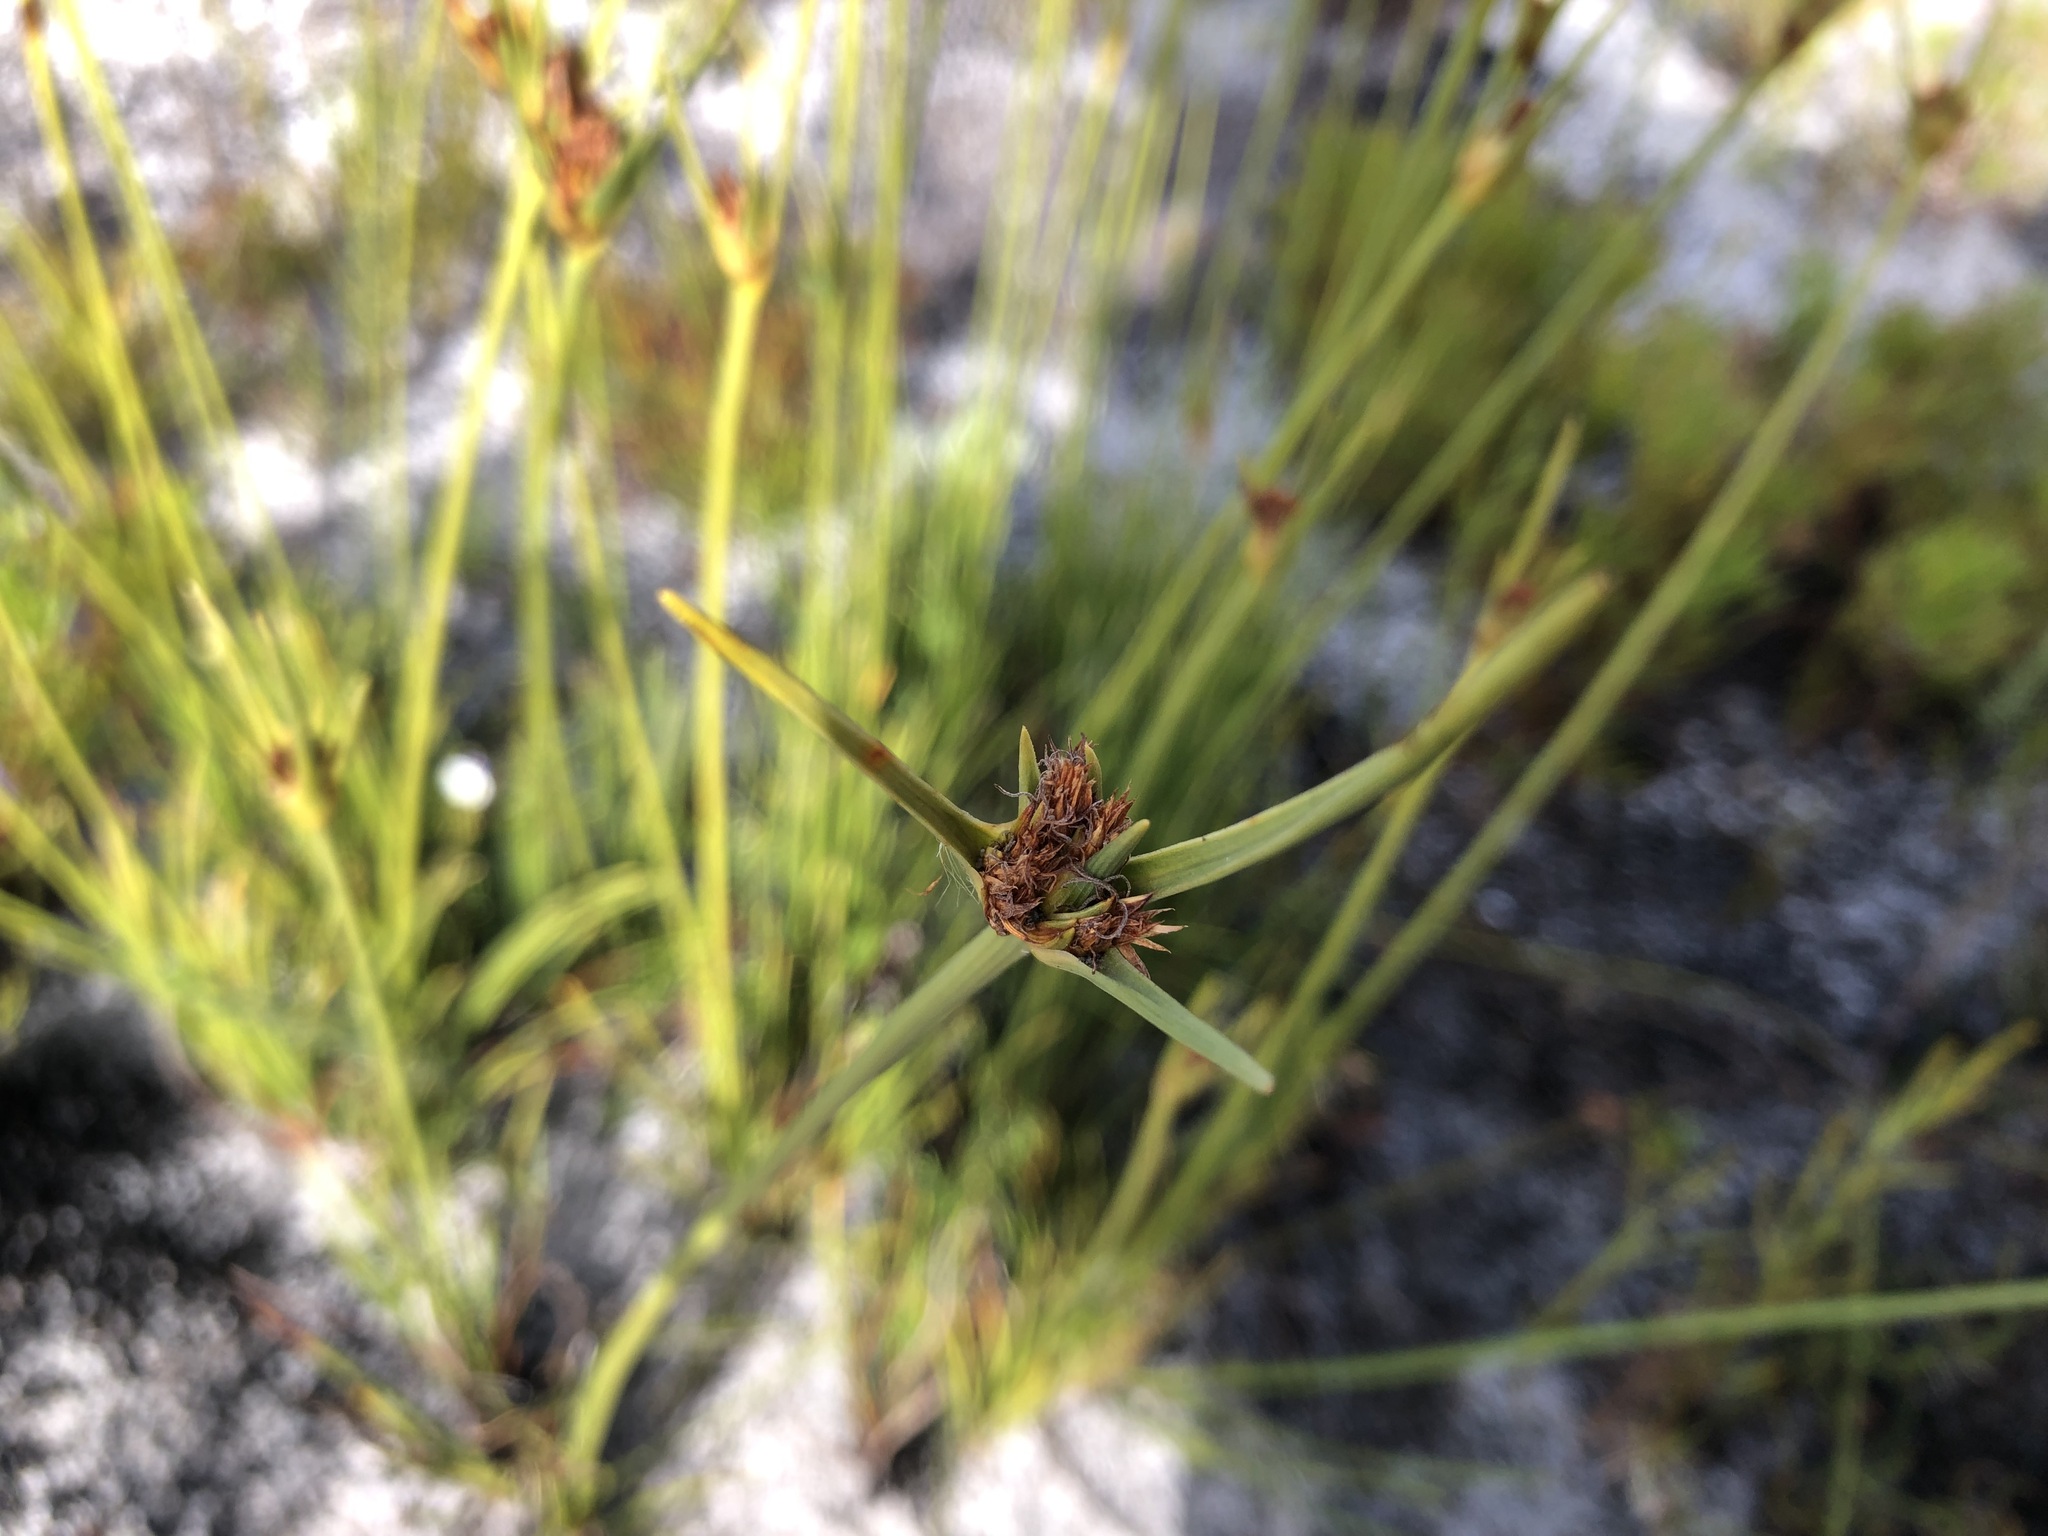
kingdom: Plantae
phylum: Tracheophyta
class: Liliopsida
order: Poales
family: Cyperaceae
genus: Ficinia
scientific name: Ficinia pallens
